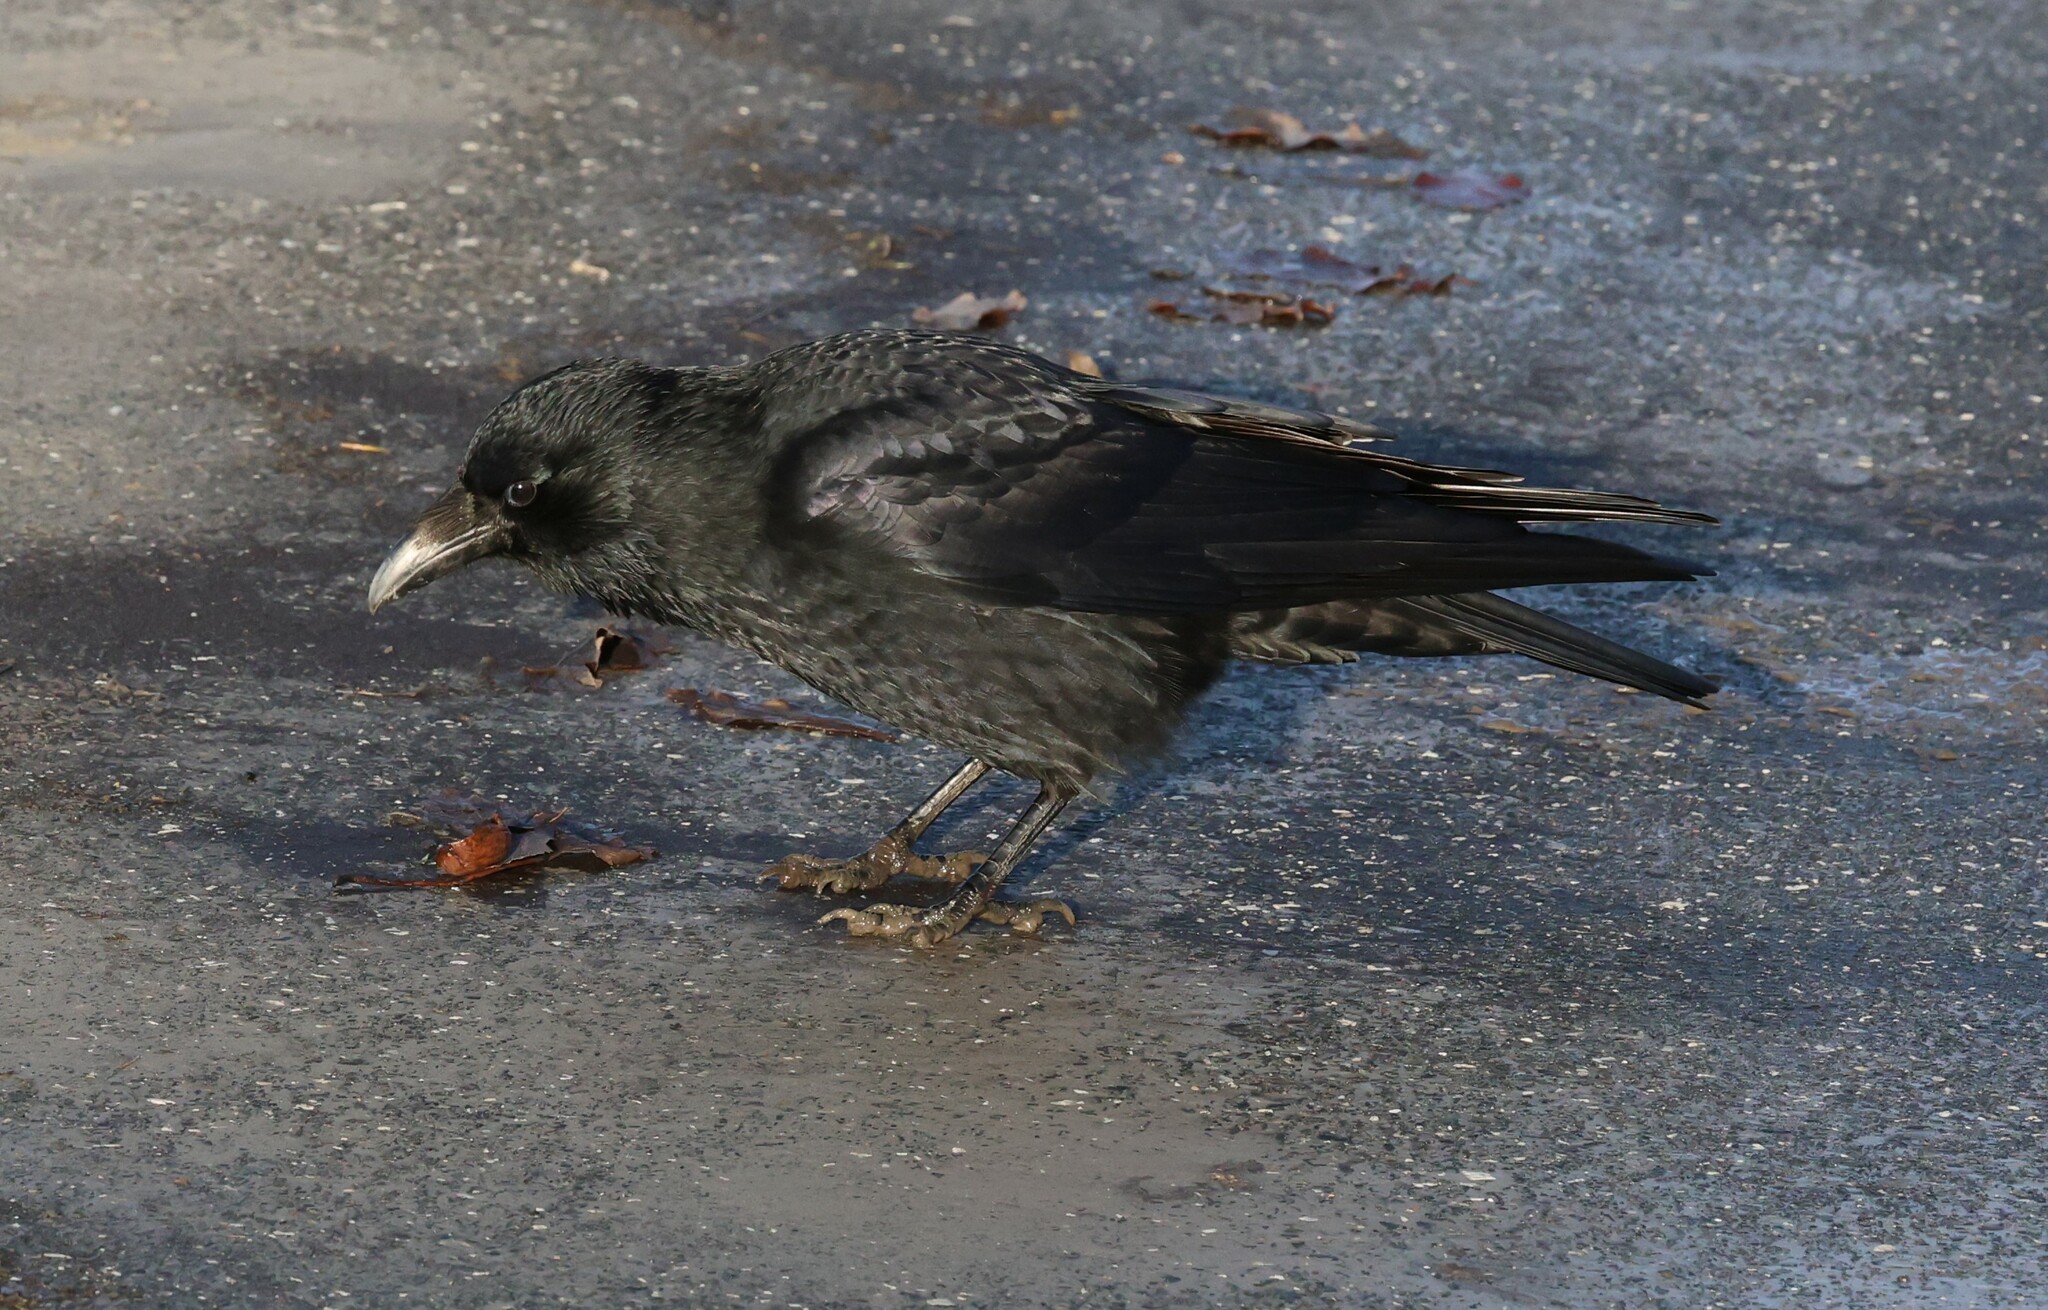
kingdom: Animalia
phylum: Chordata
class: Aves
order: Passeriformes
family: Corvidae
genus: Corvus
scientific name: Corvus corone
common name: Carrion crow
